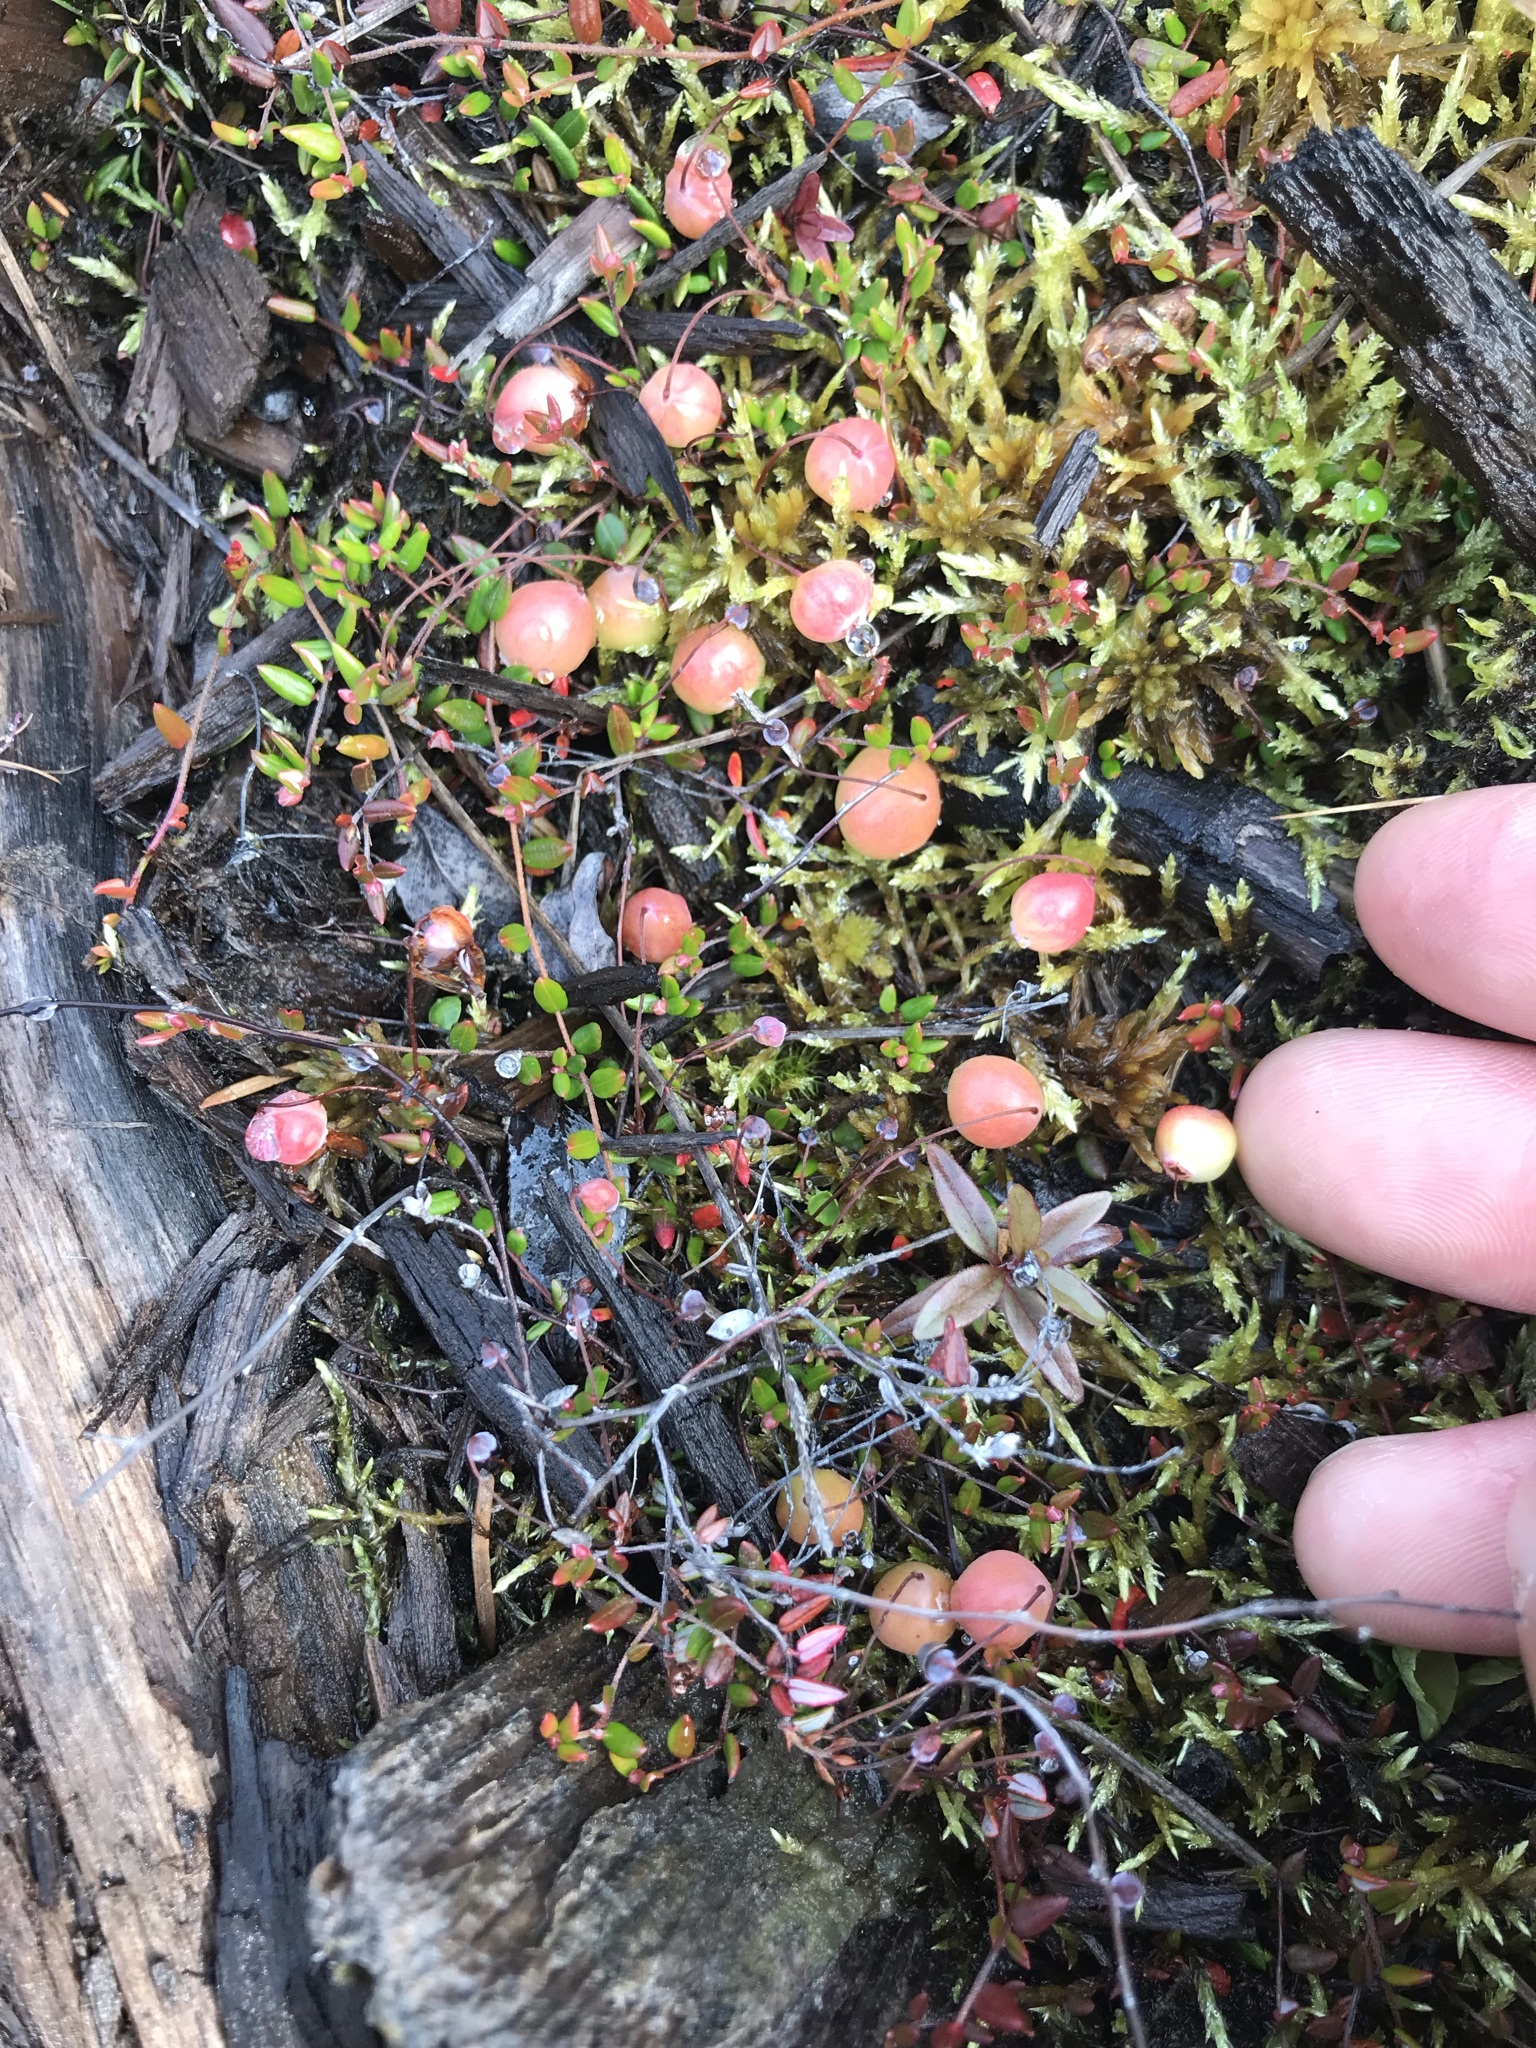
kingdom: Plantae
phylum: Tracheophyta
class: Magnoliopsida
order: Ericales
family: Ericaceae
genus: Vaccinium
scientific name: Vaccinium oxycoccos
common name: Cranberry
